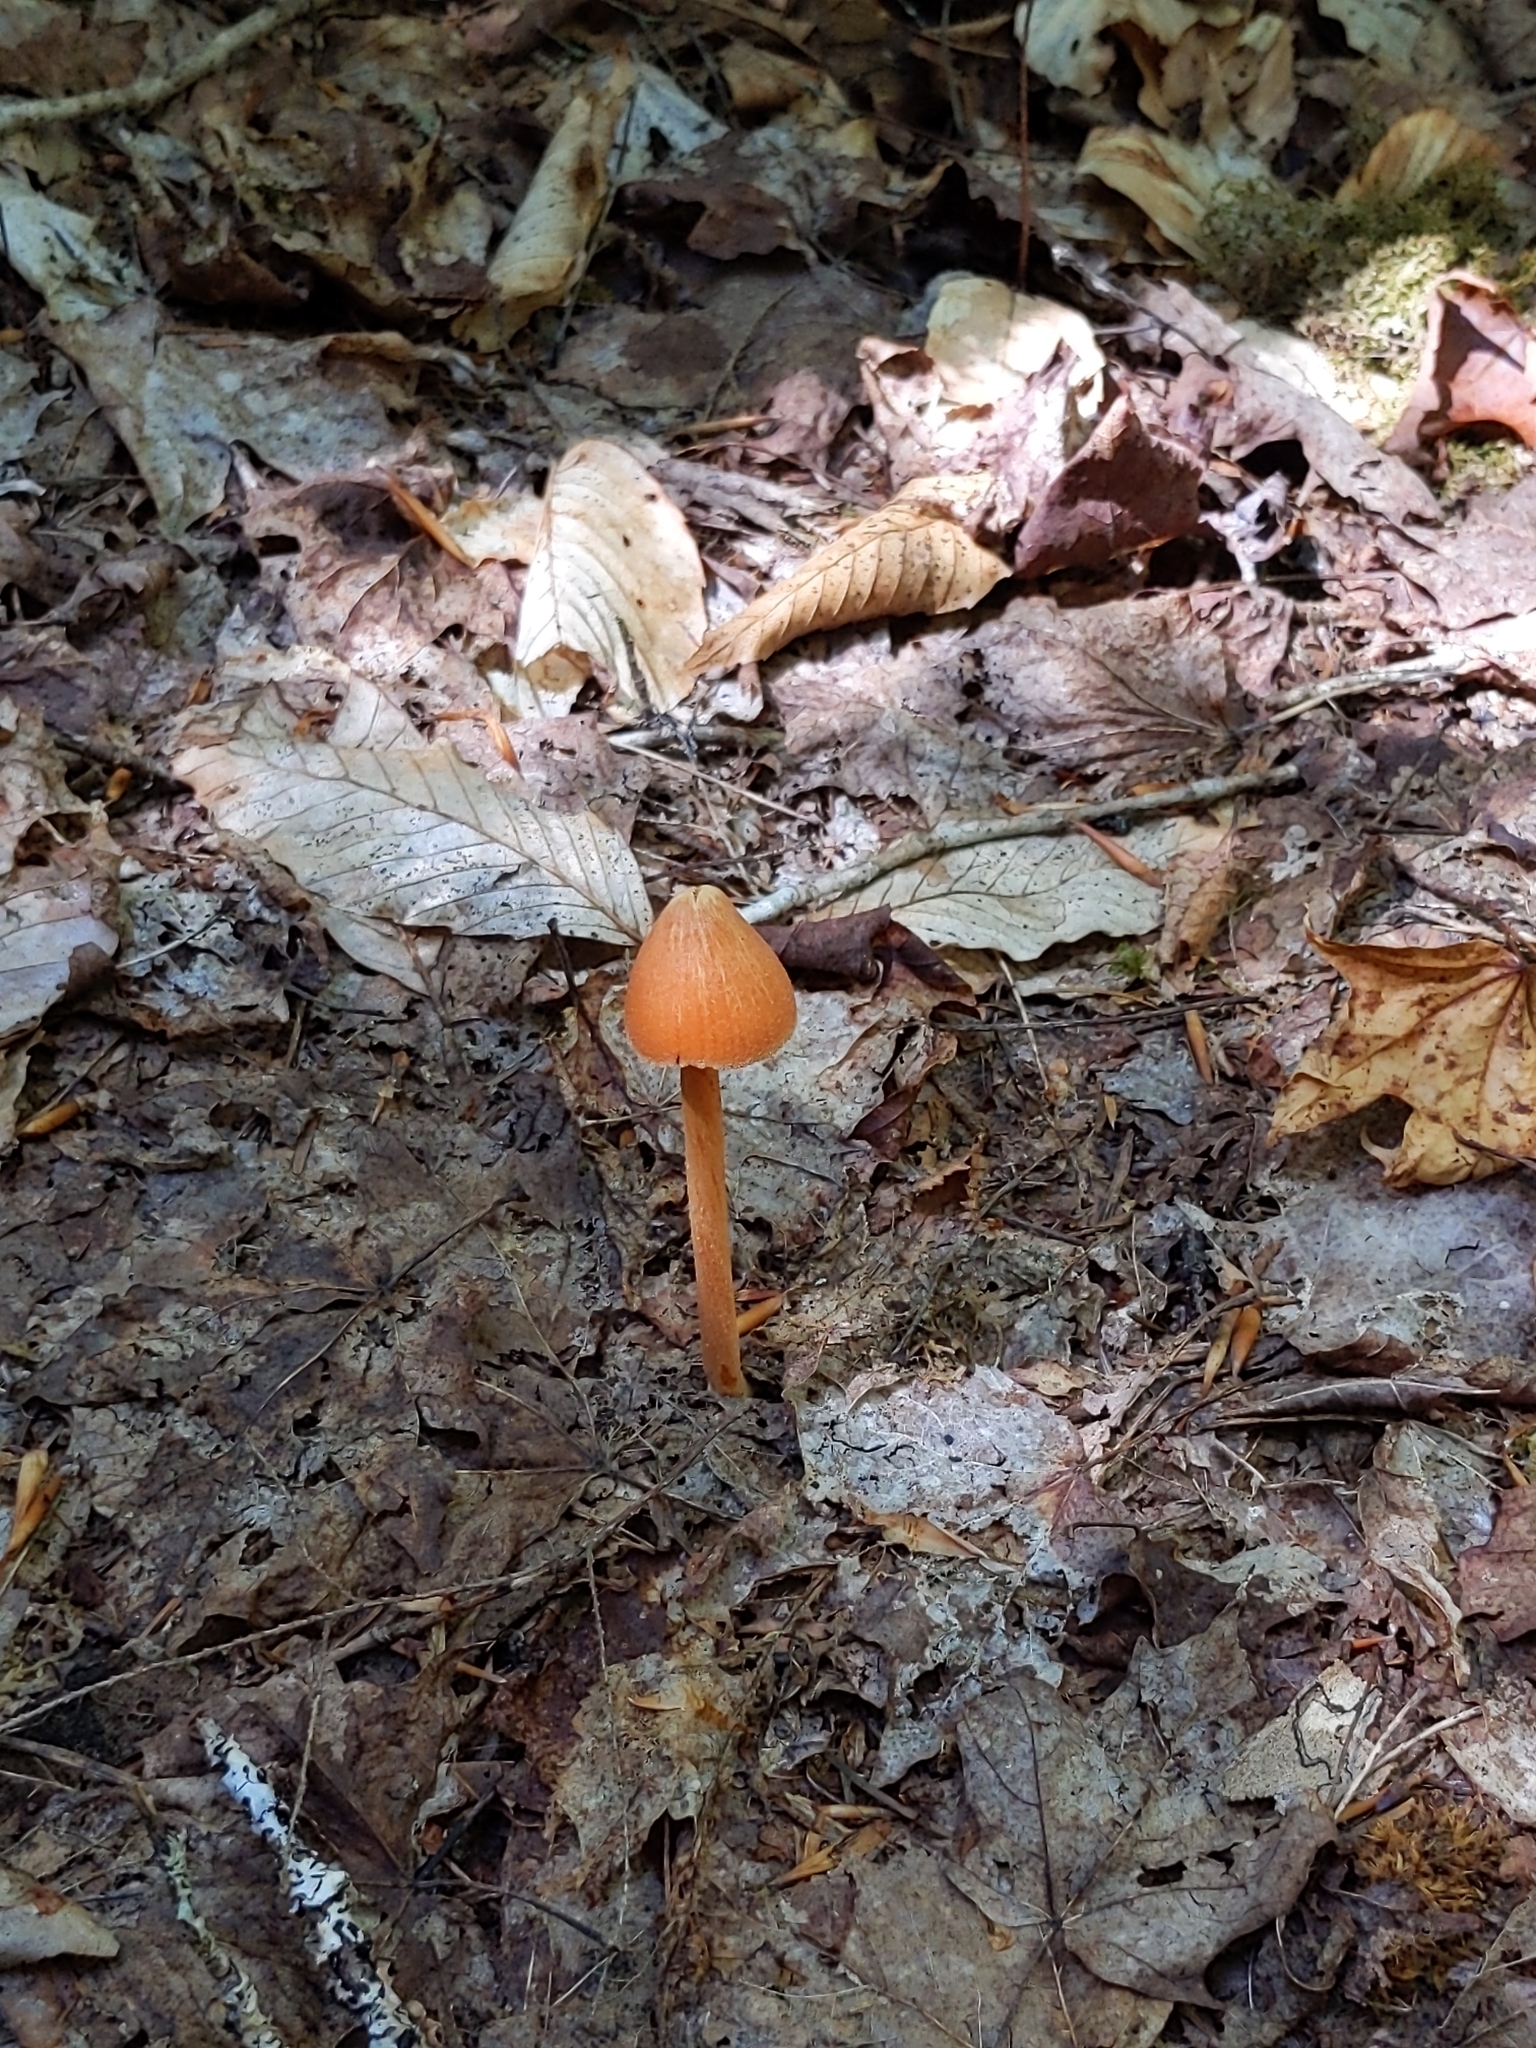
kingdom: Fungi
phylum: Basidiomycota
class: Agaricomycetes
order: Agaricales
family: Entolomataceae
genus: Entoloma
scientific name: Entoloma quadratum
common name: Salmon pinkgill
